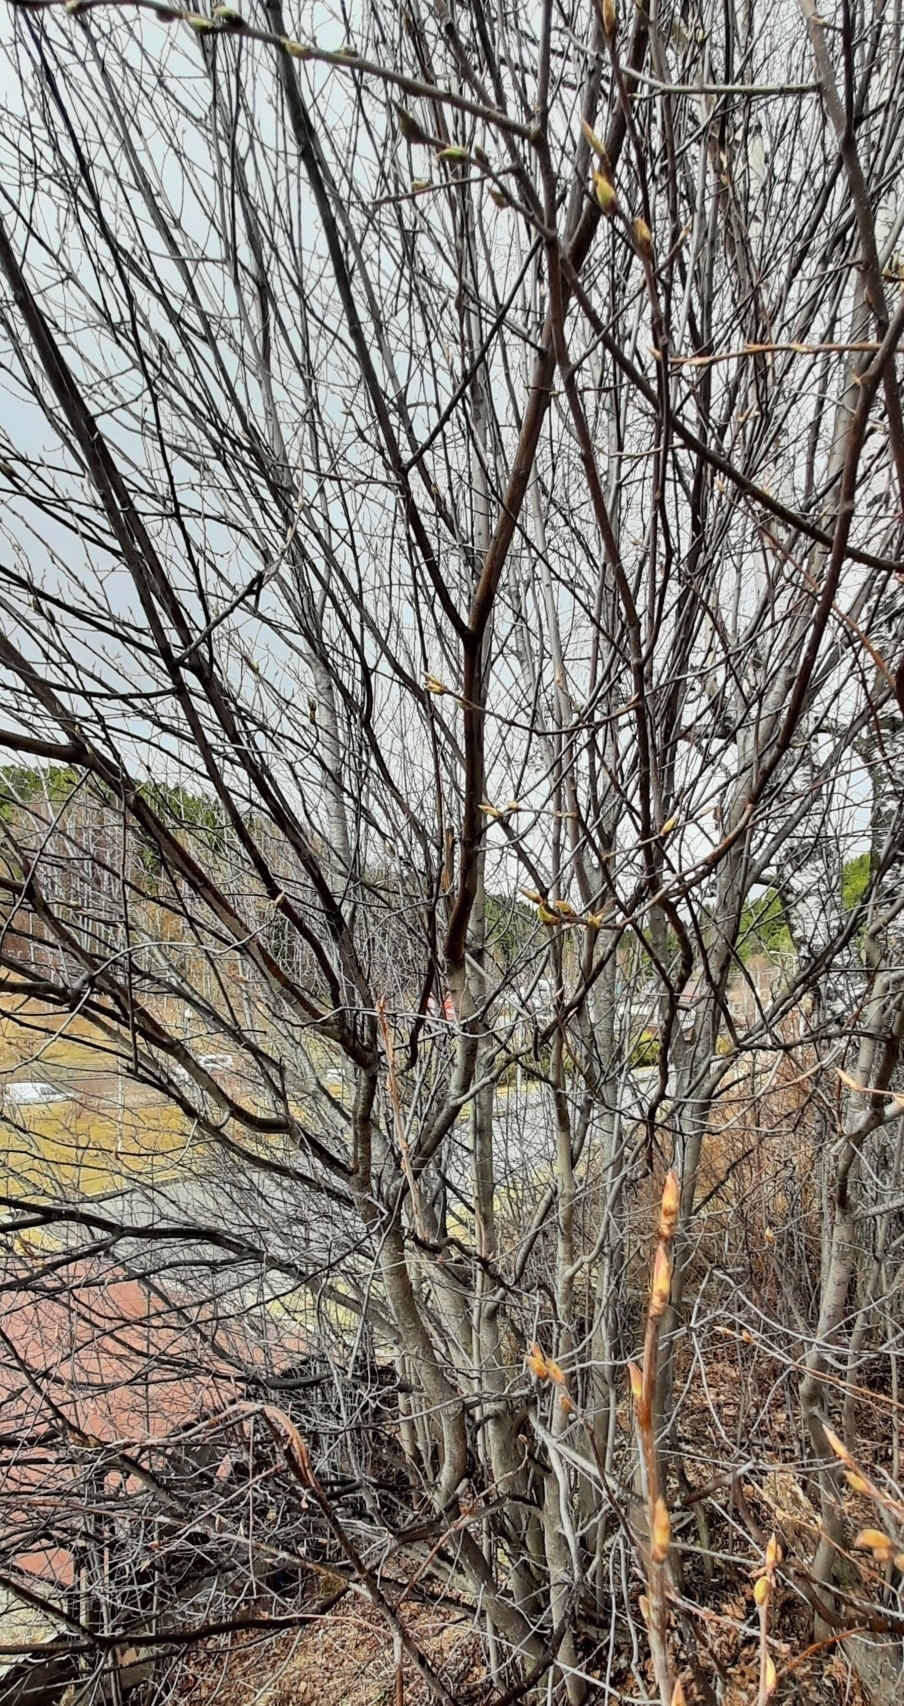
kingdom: Plantae
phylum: Tracheophyta
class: Magnoliopsida
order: Rosales
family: Rosaceae
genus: Prunus
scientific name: Prunus padus
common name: Bird cherry
